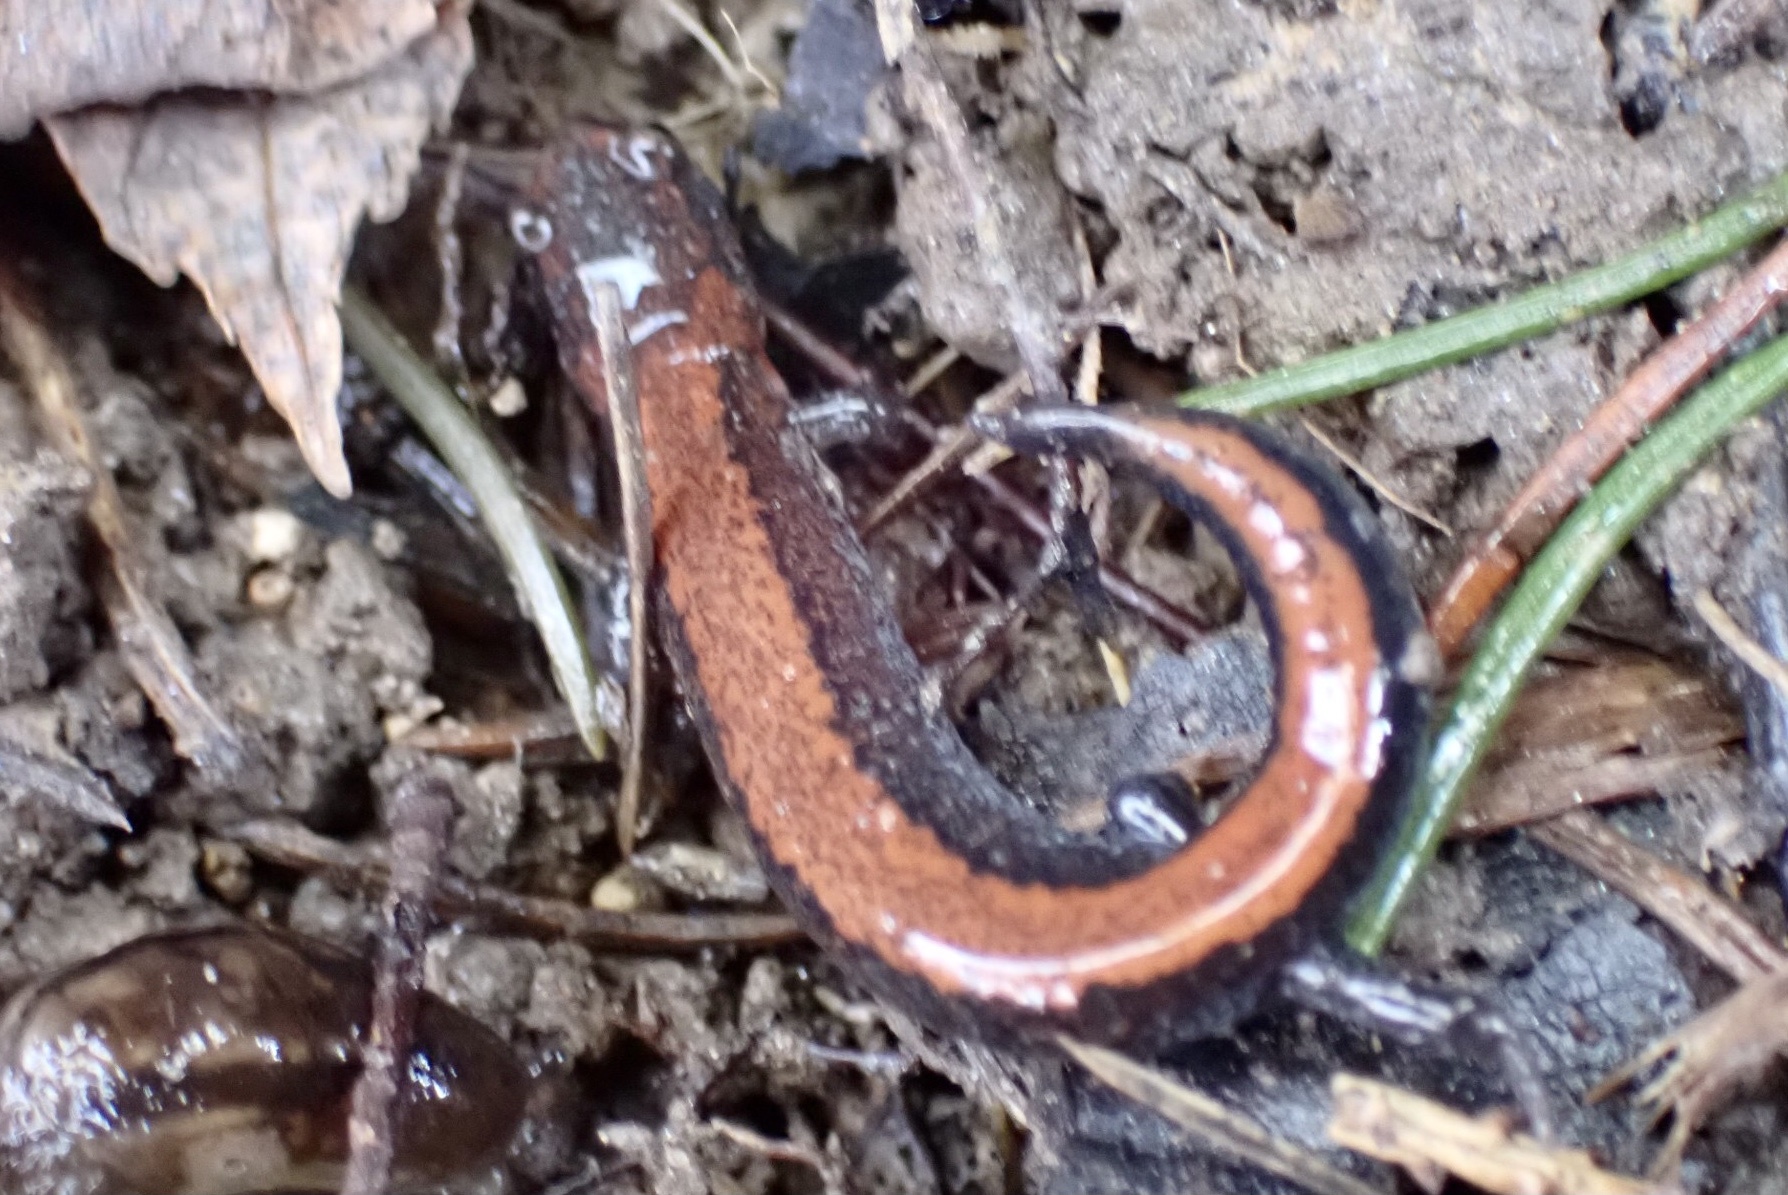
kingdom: Animalia
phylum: Chordata
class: Amphibia
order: Caudata
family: Plethodontidae
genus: Plethodon
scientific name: Plethodon cinereus
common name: Redback salamander
